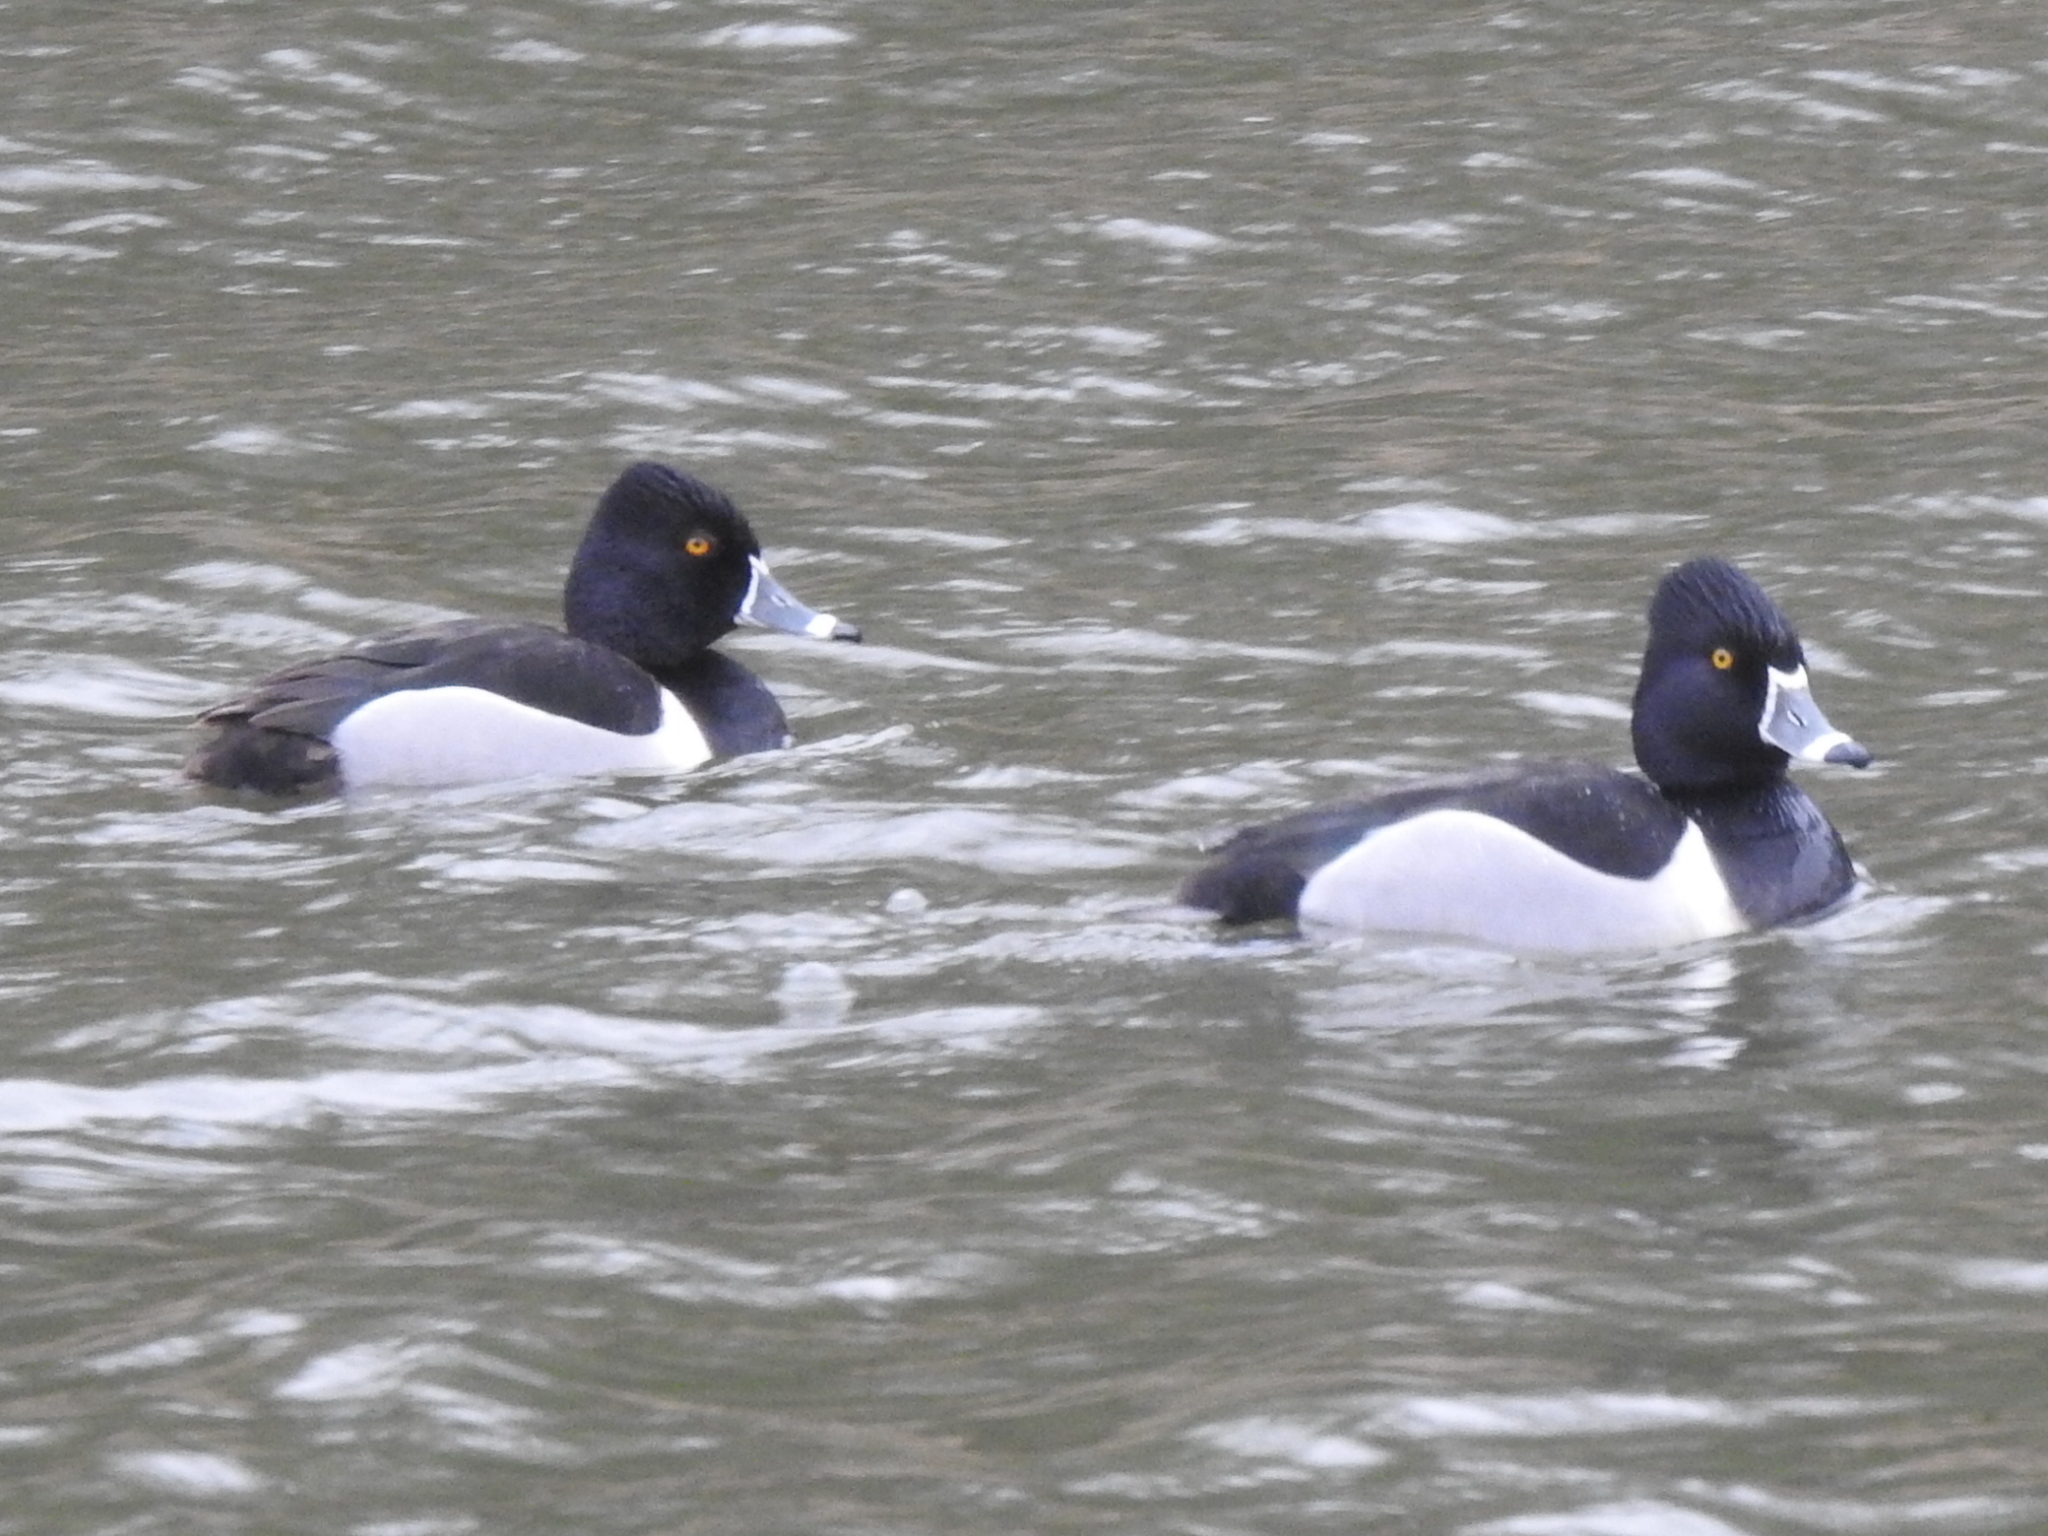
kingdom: Animalia
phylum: Chordata
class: Aves
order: Anseriformes
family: Anatidae
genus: Aythya
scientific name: Aythya collaris
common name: Ring-necked duck
